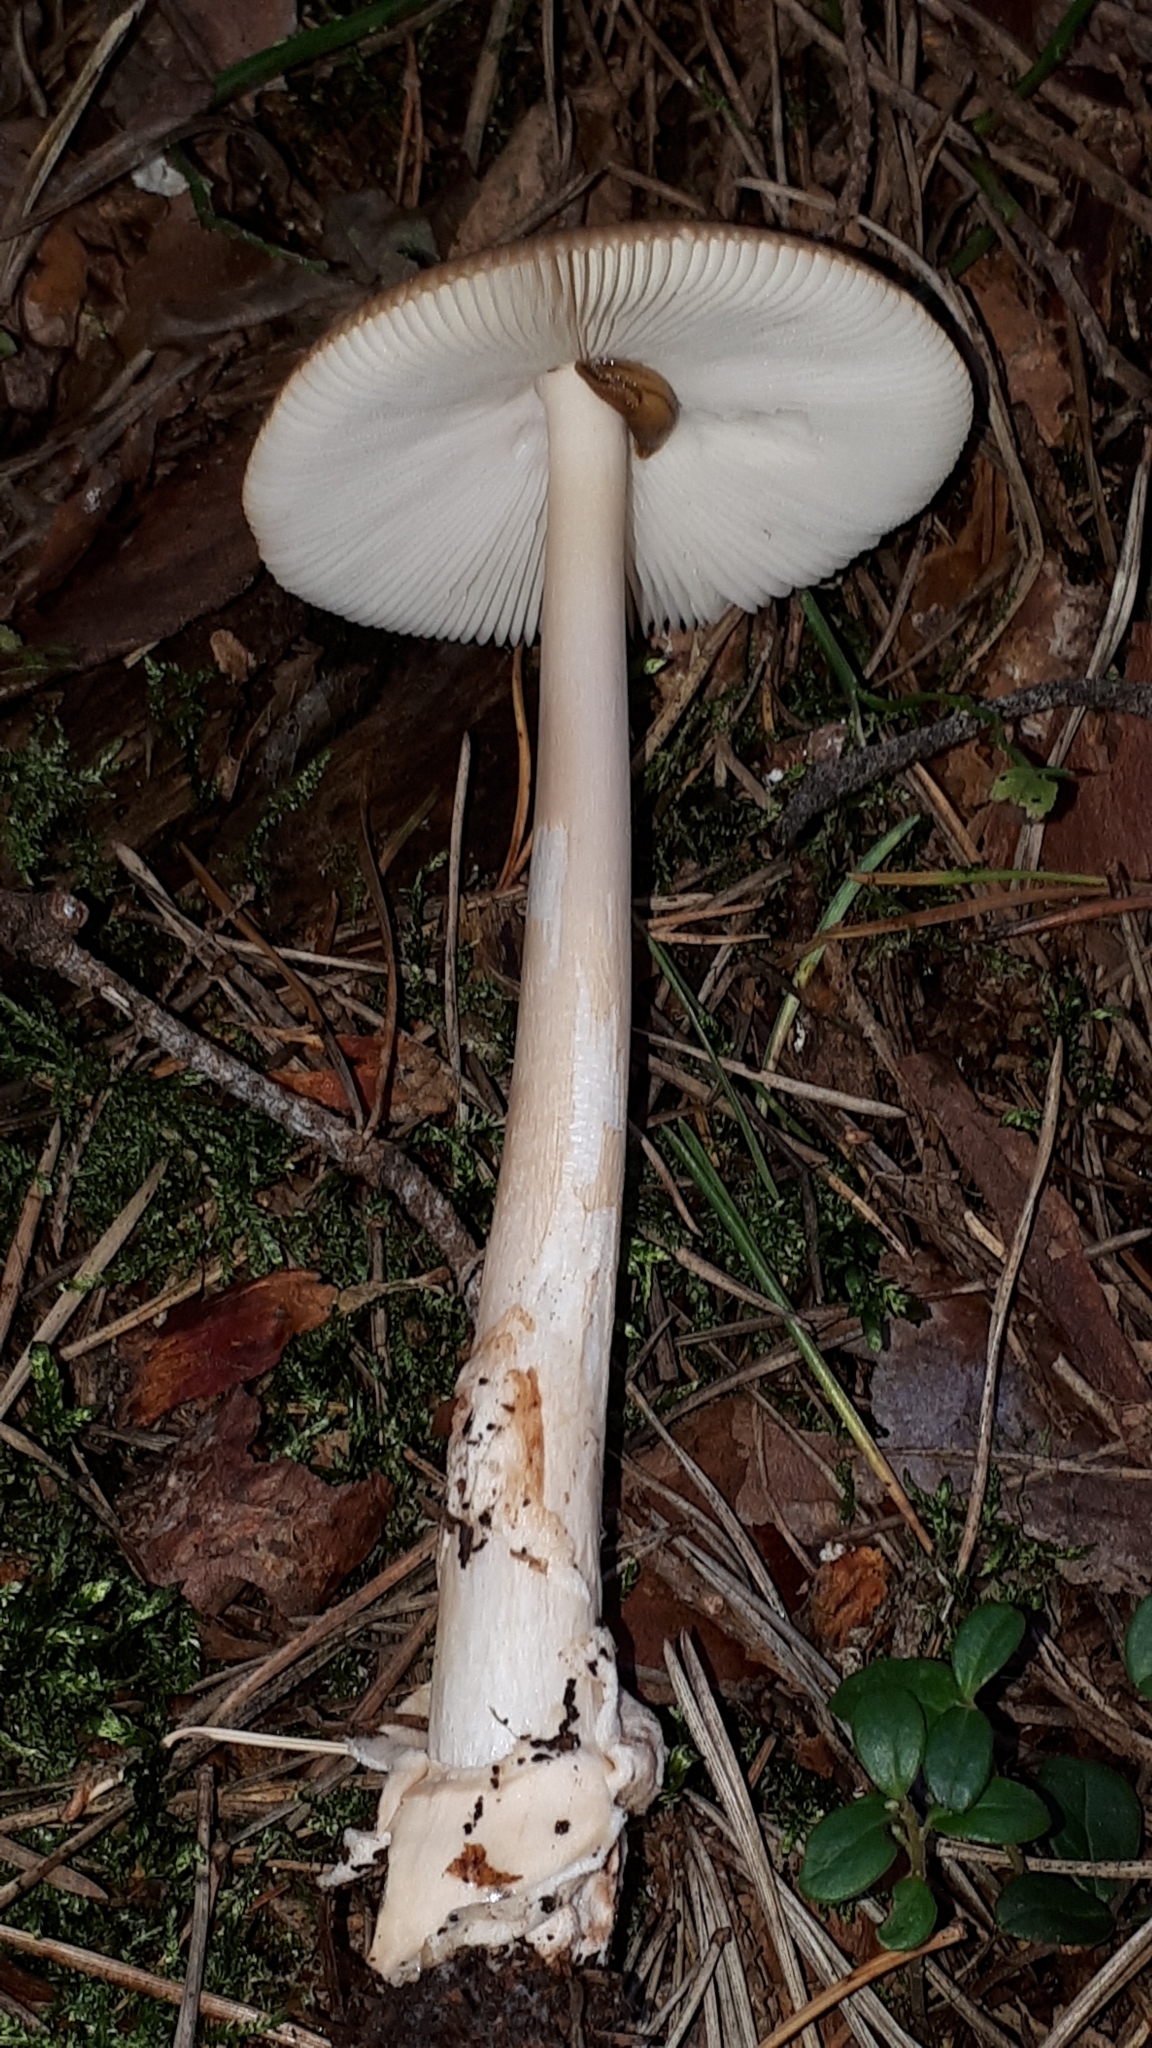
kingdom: Fungi
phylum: Basidiomycota
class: Agaricomycetes
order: Agaricales
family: Amanitaceae
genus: Amanita
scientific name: Amanita fulva
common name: Tawny grisette
